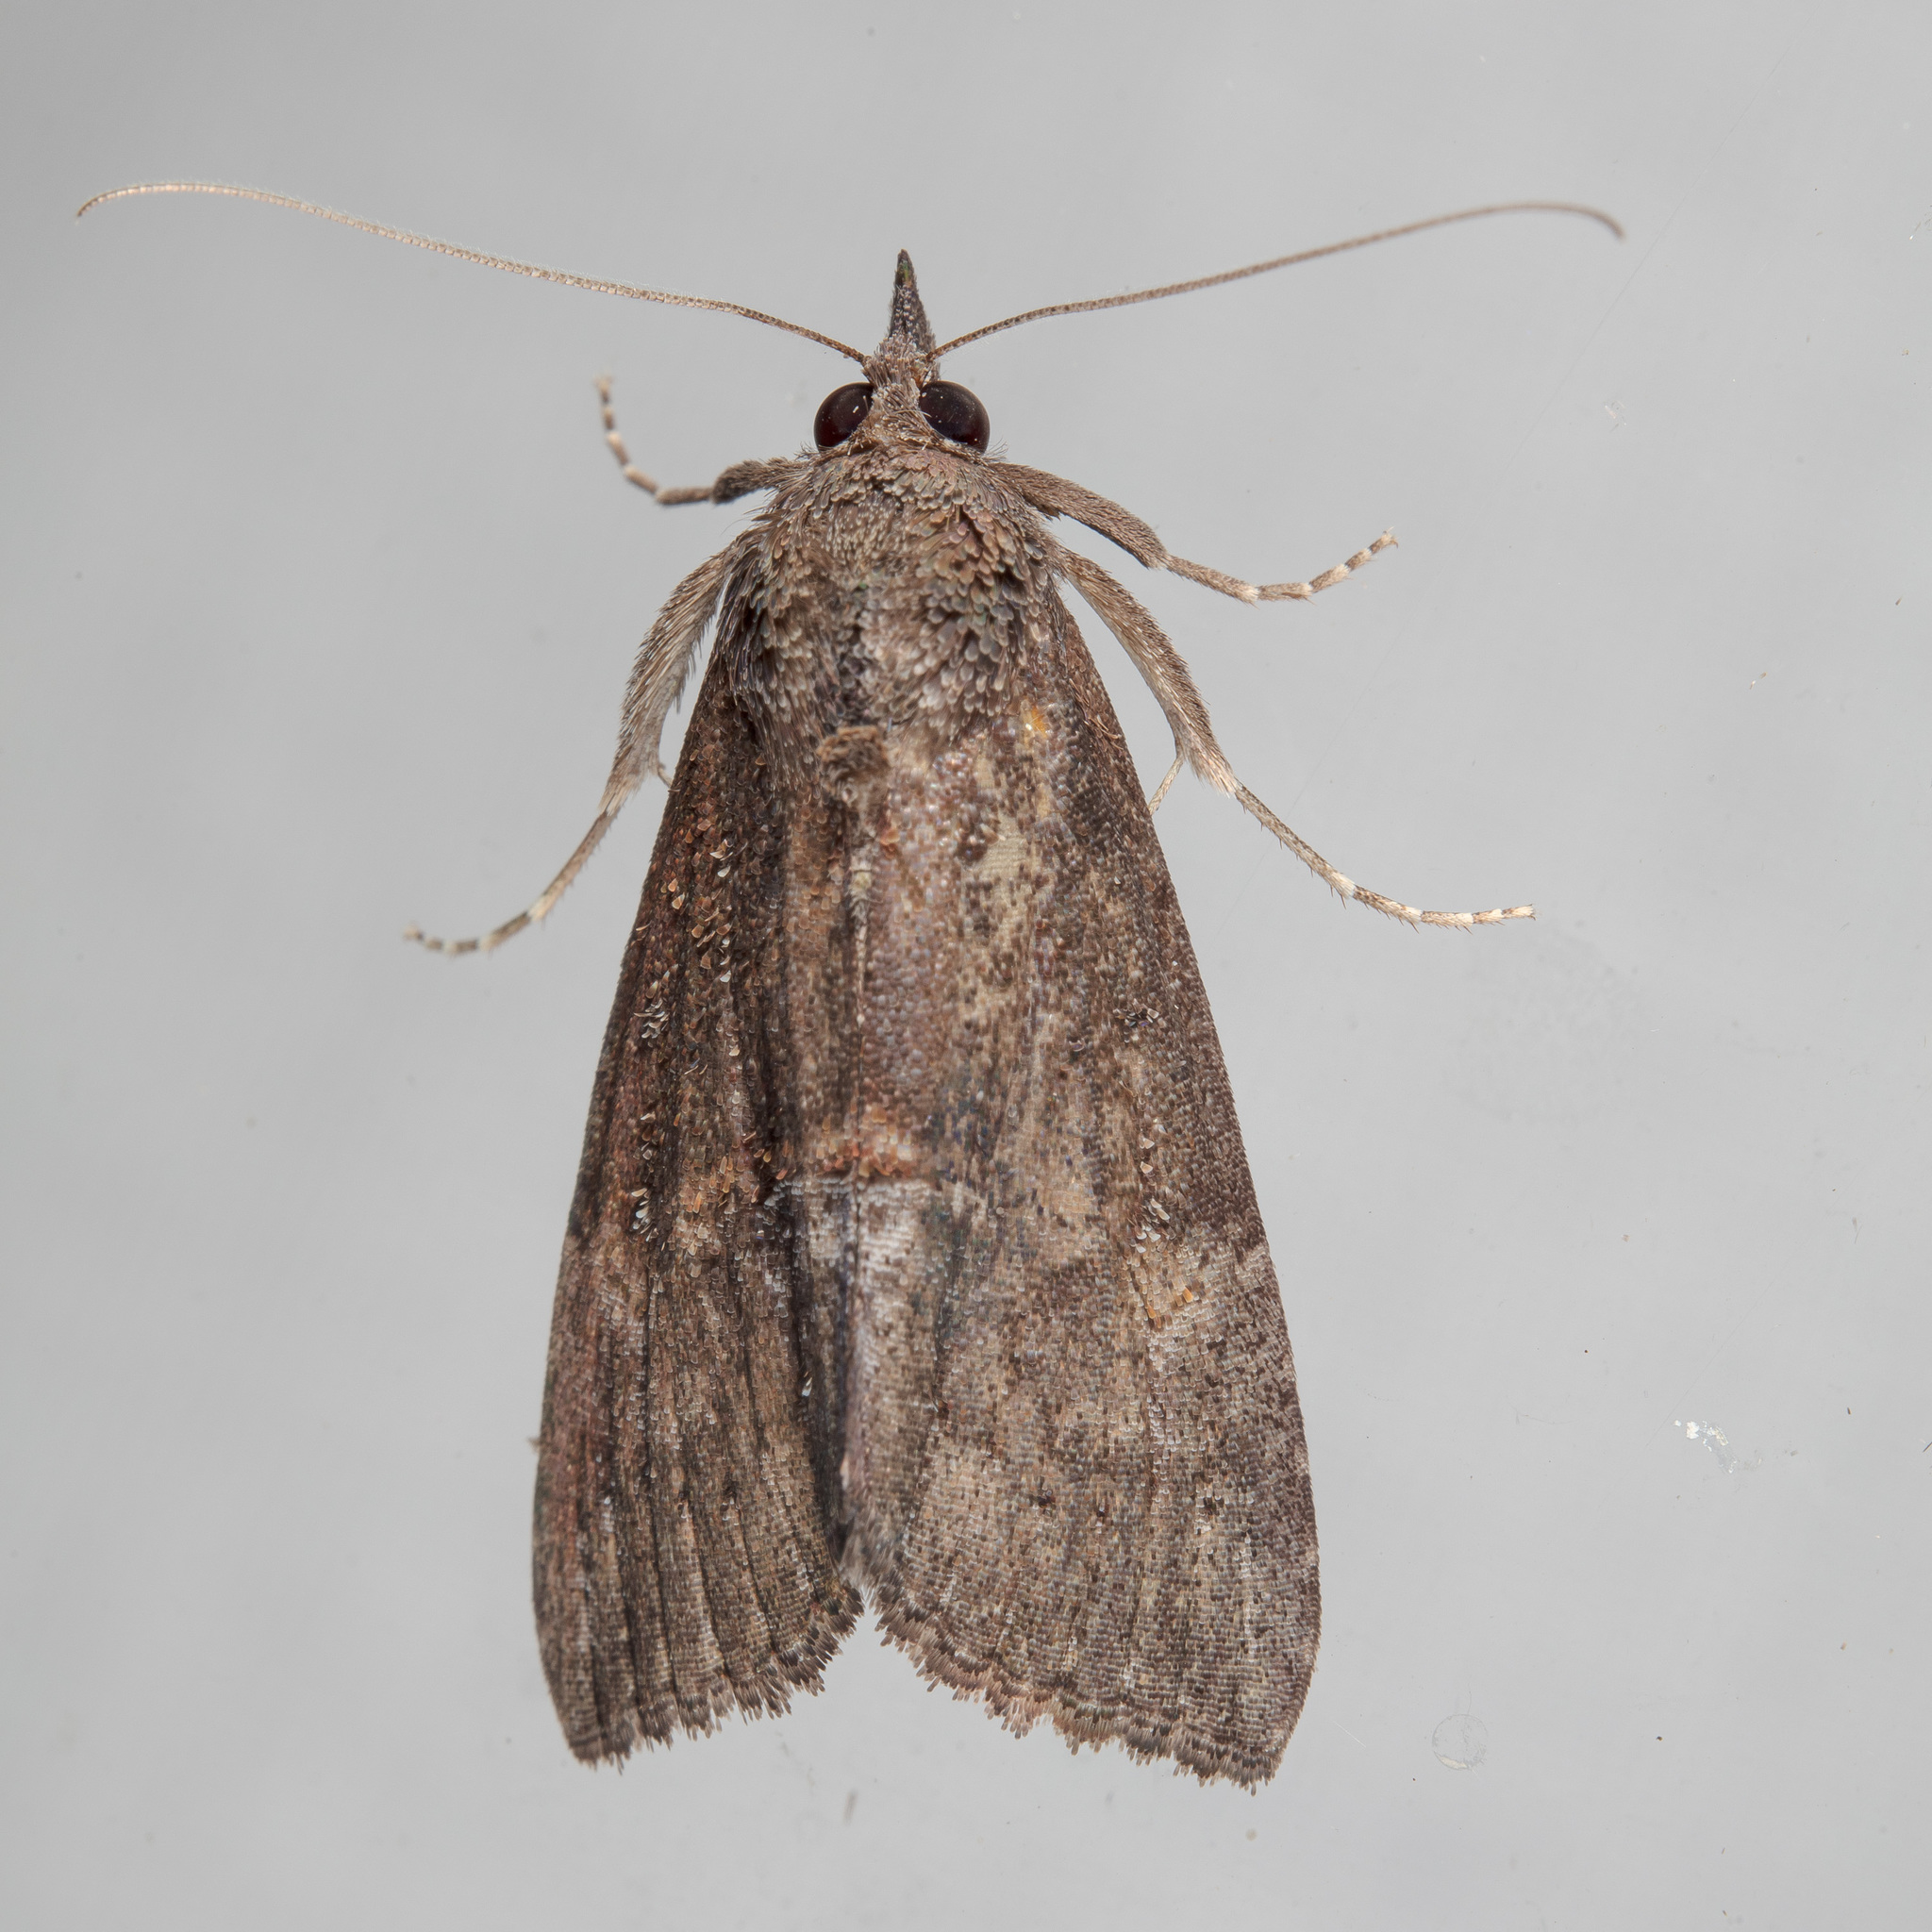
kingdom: Animalia
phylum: Arthropoda
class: Insecta
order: Lepidoptera
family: Erebidae
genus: Hypena
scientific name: Hypena scabra
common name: Green cloverworm
